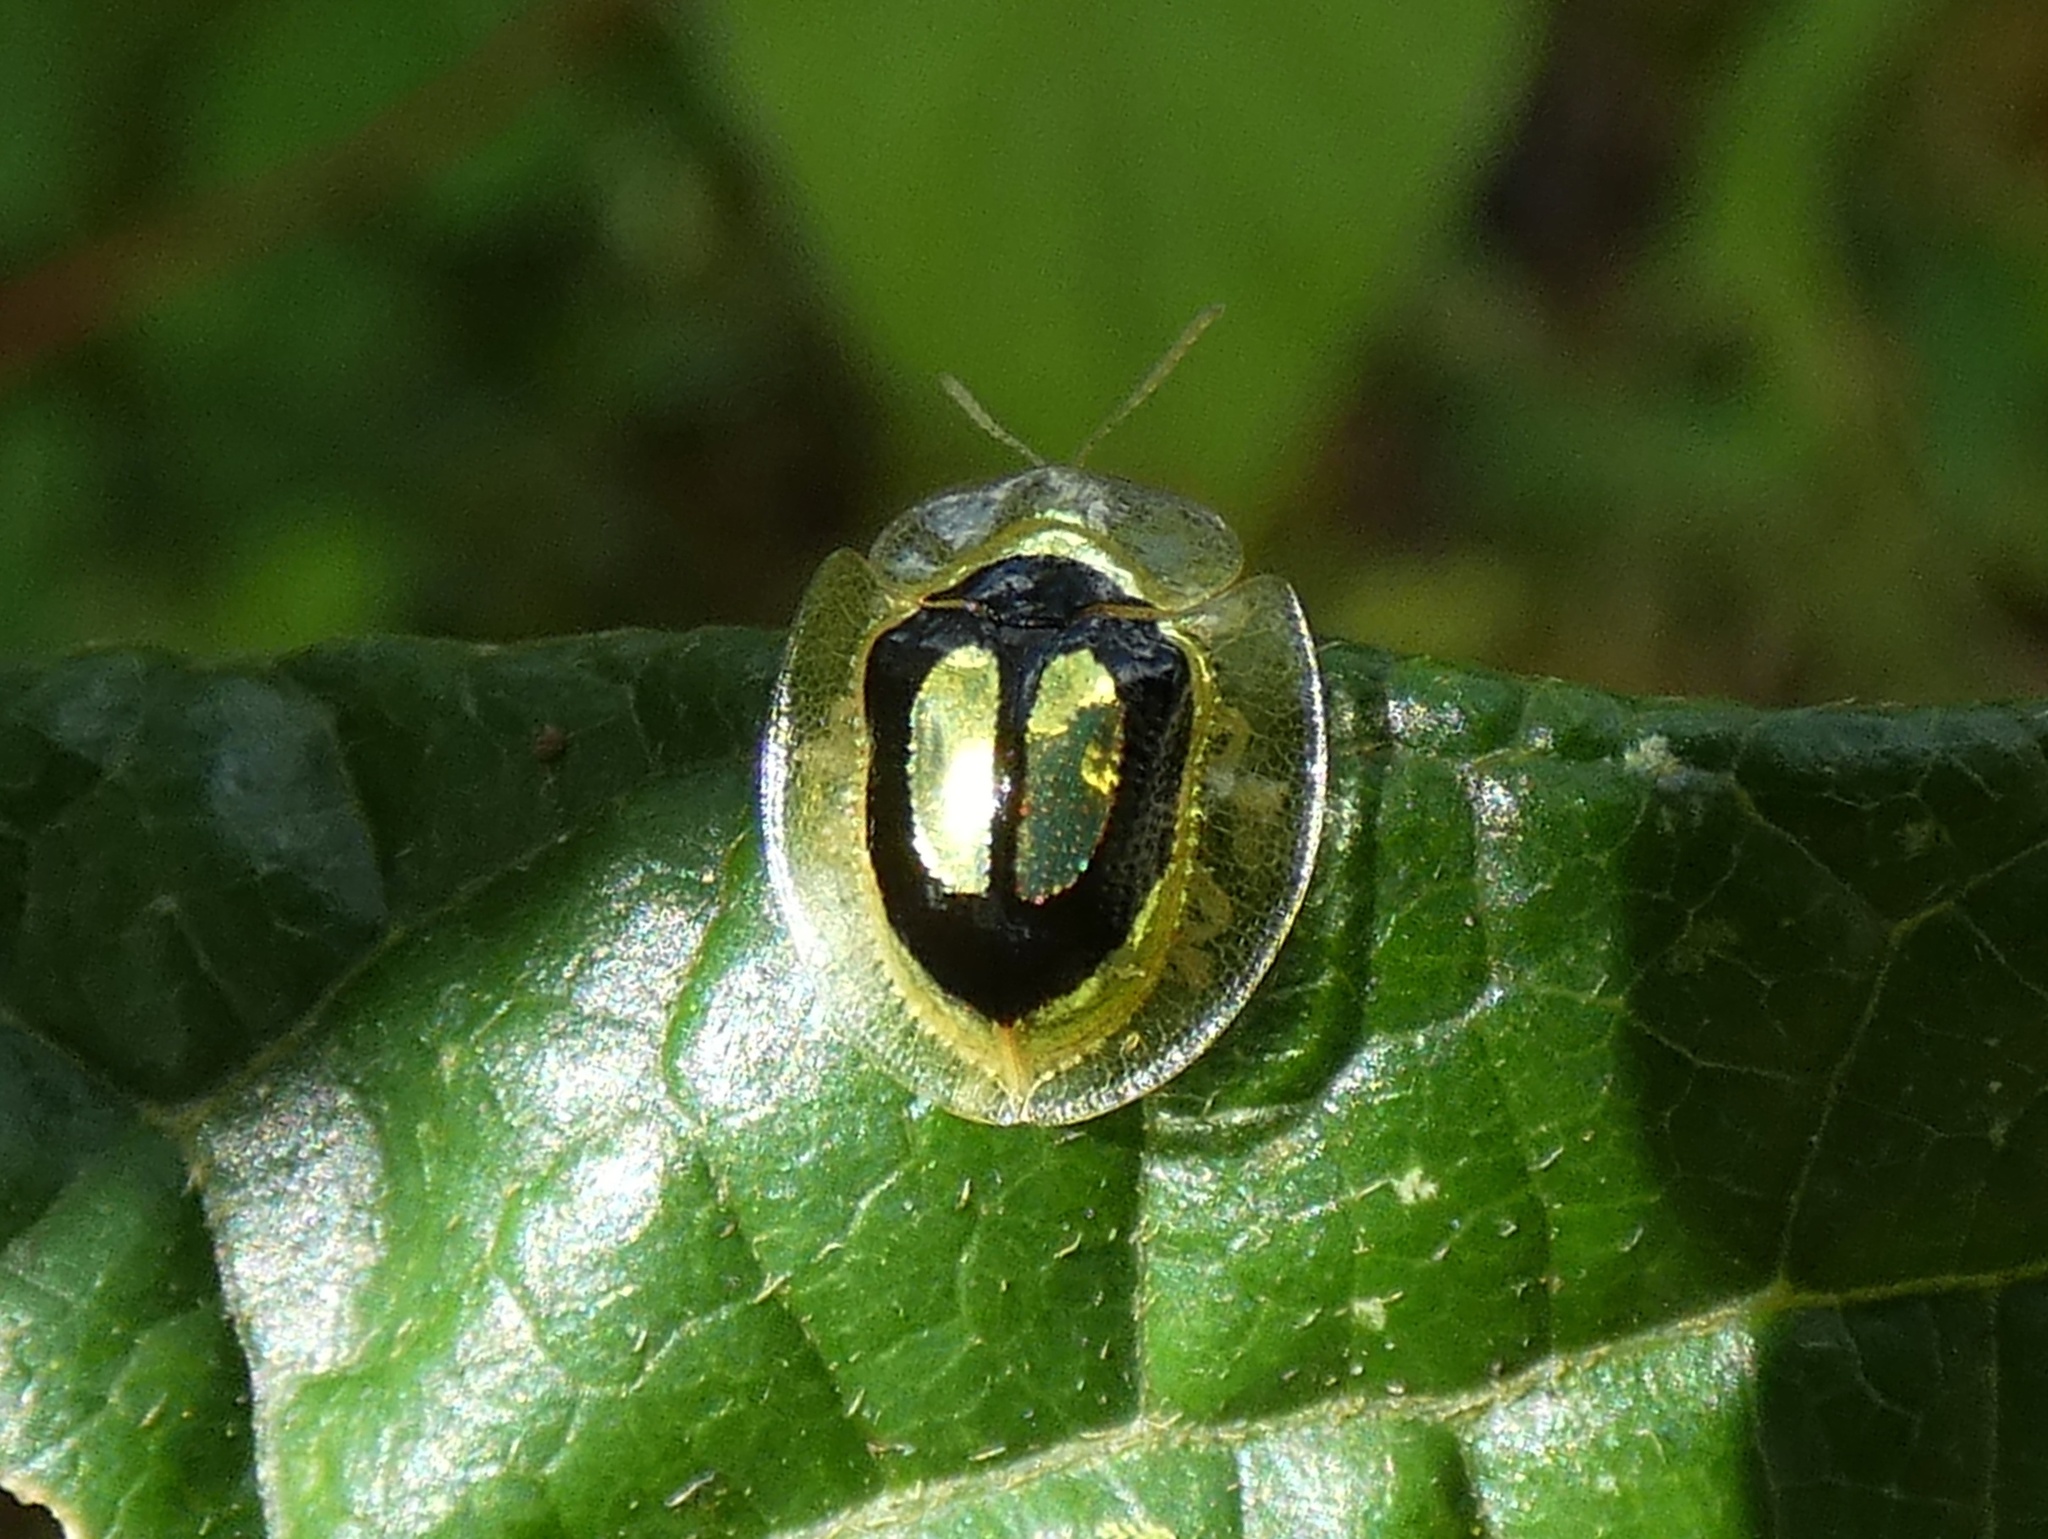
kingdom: Animalia
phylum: Arthropoda
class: Insecta
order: Coleoptera
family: Chrysomelidae
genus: Charidotella
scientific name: Charidotella ambita
